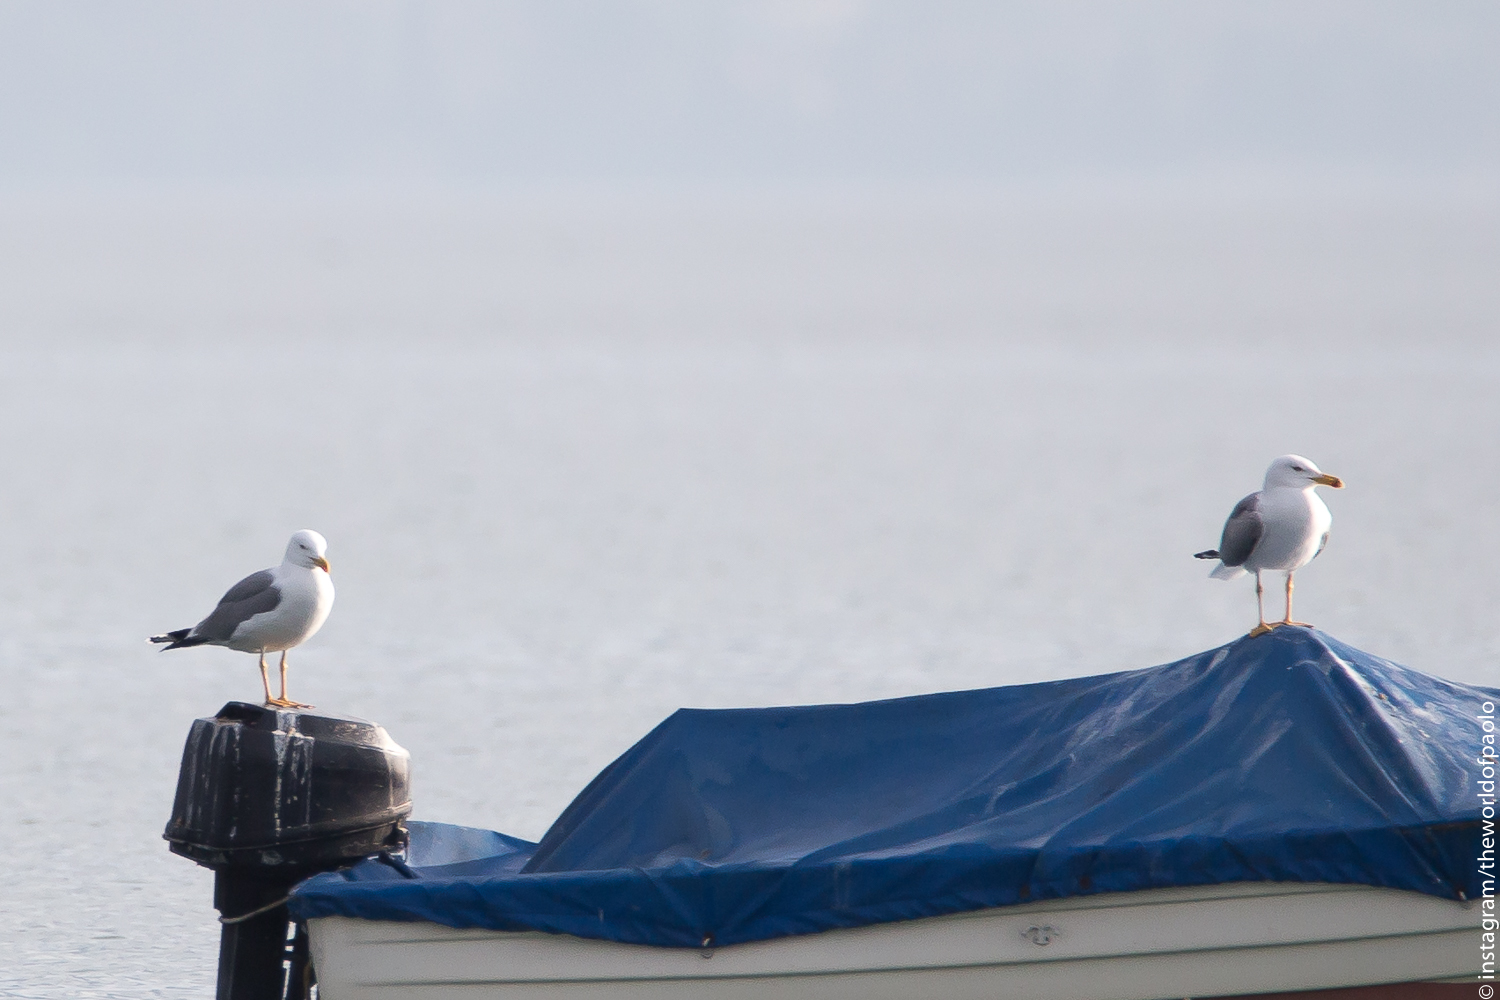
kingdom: Animalia
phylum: Chordata
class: Aves
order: Charadriiformes
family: Laridae
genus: Larus
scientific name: Larus michahellis
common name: Yellow-legged gull
